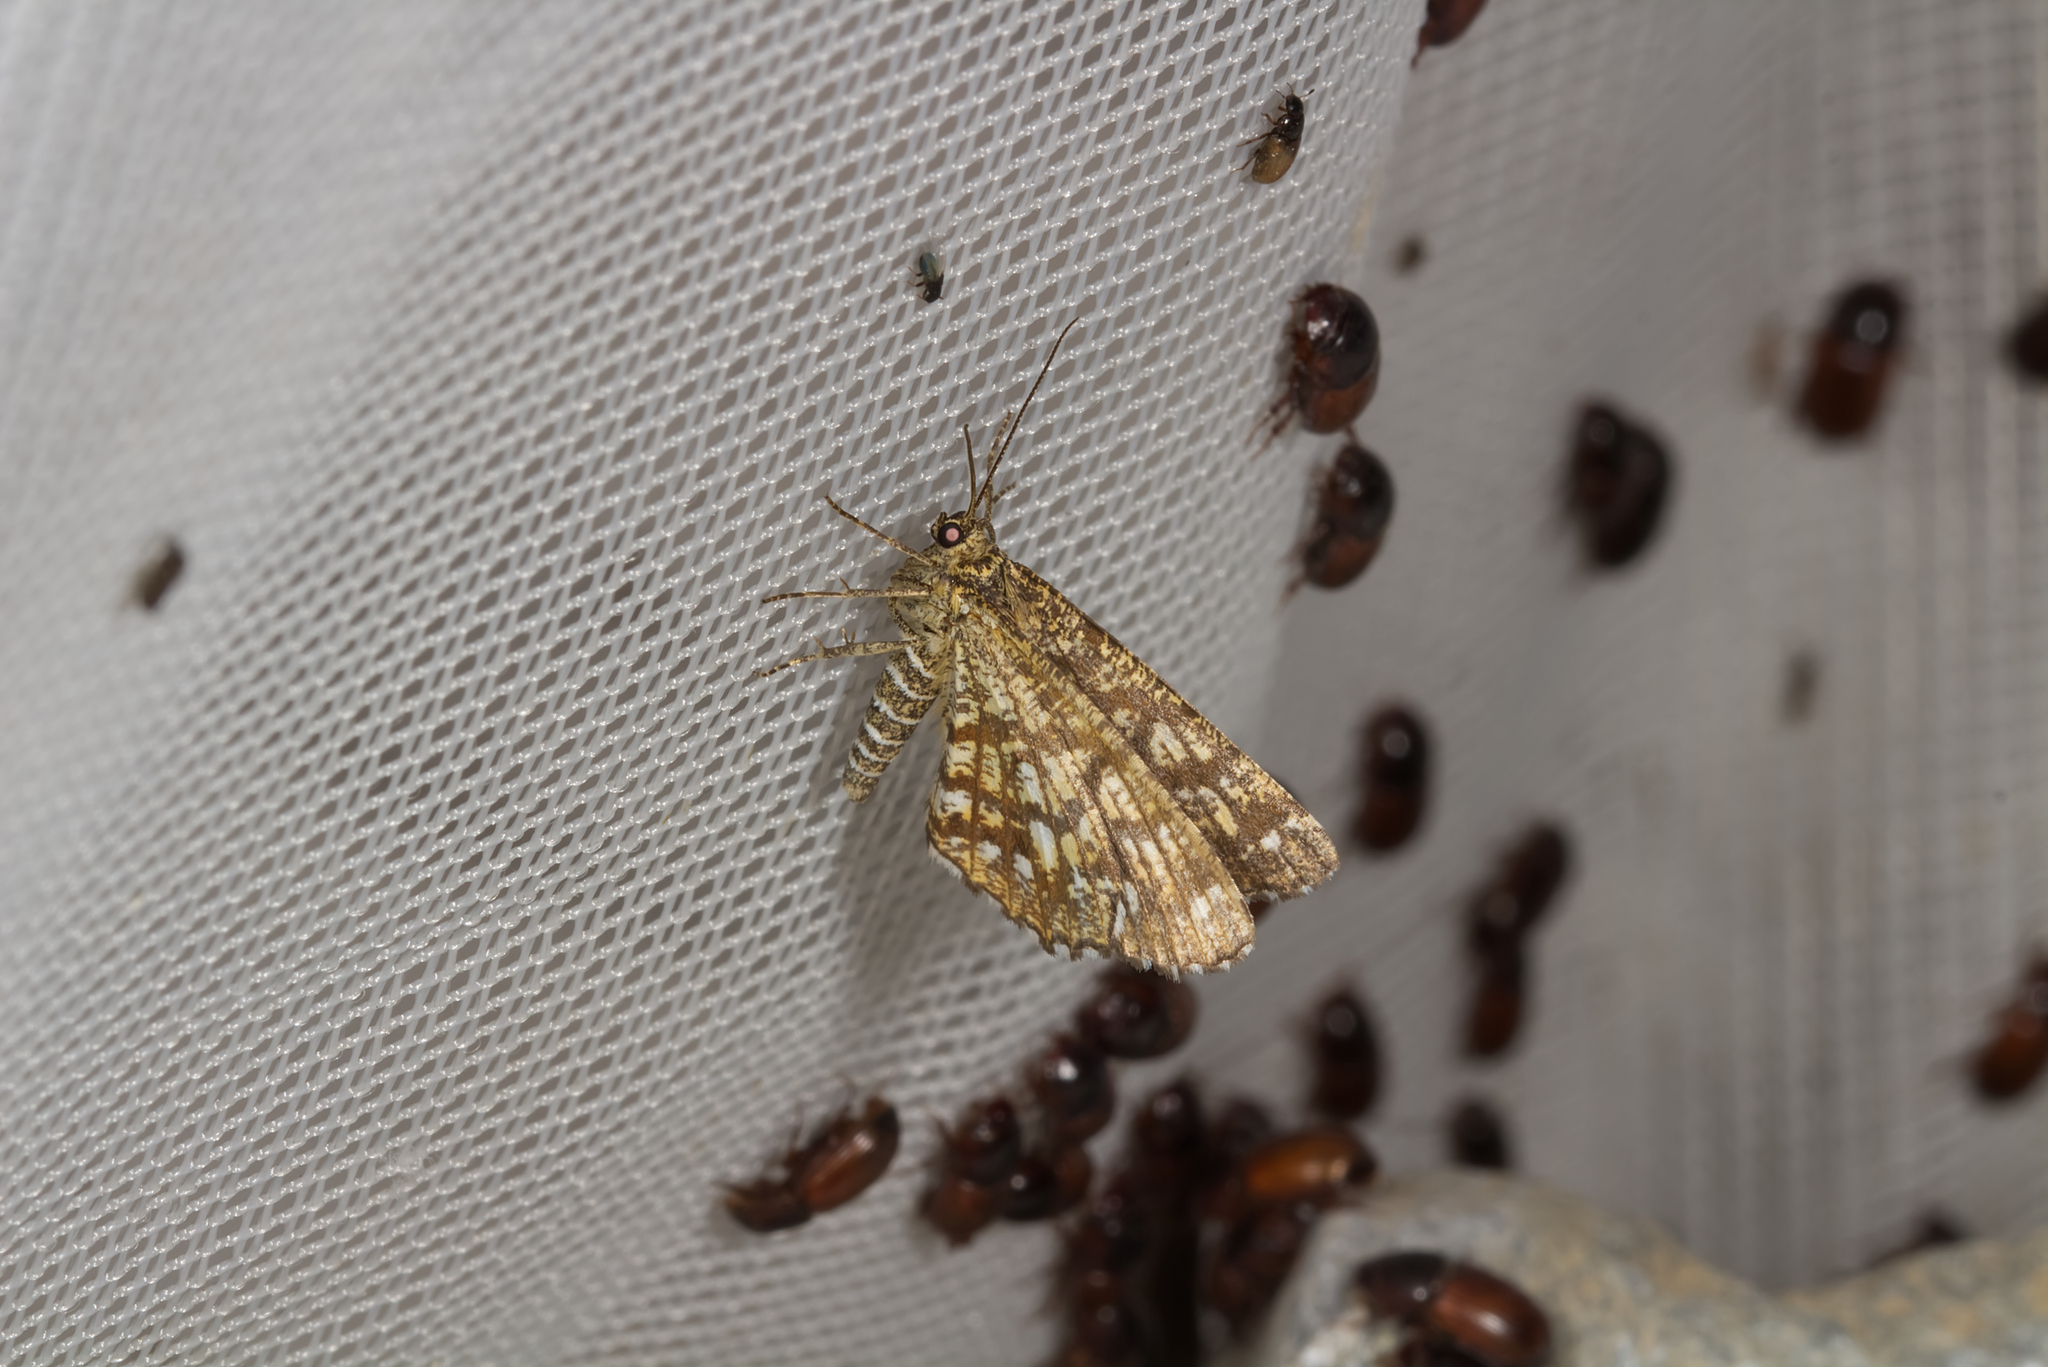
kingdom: Animalia
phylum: Arthropoda
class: Insecta
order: Lepidoptera
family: Geometridae
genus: Chiasmia
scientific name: Chiasmia clathrata
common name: Latticed heath
